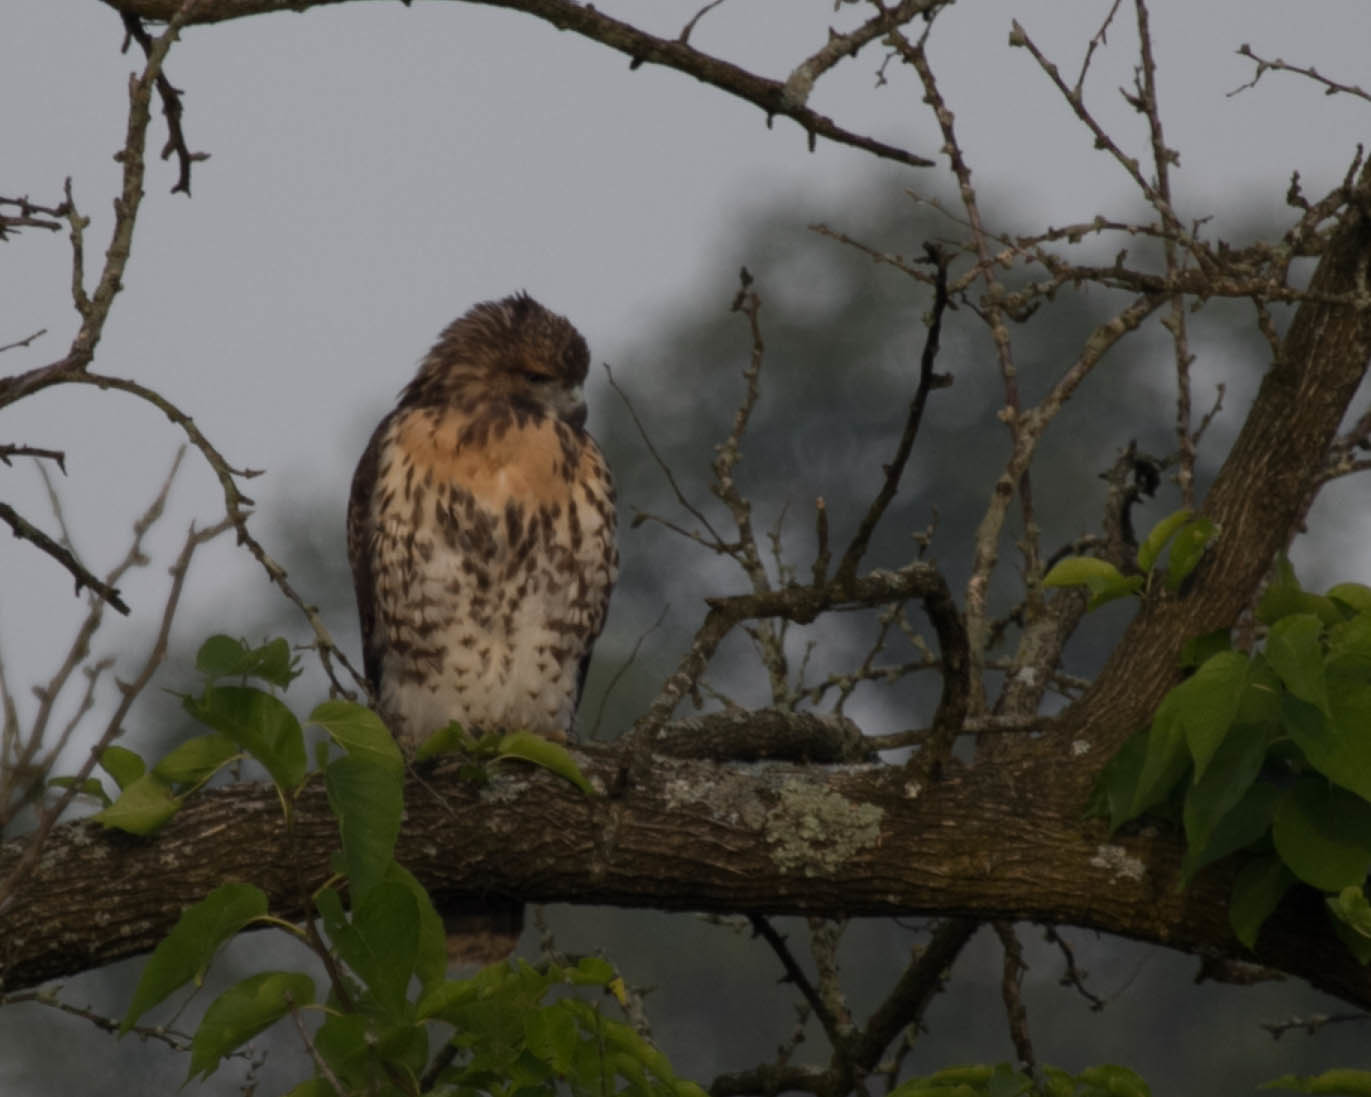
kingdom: Animalia
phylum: Chordata
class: Aves
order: Accipitriformes
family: Accipitridae
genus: Buteo
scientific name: Buteo jamaicensis
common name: Red-tailed hawk
